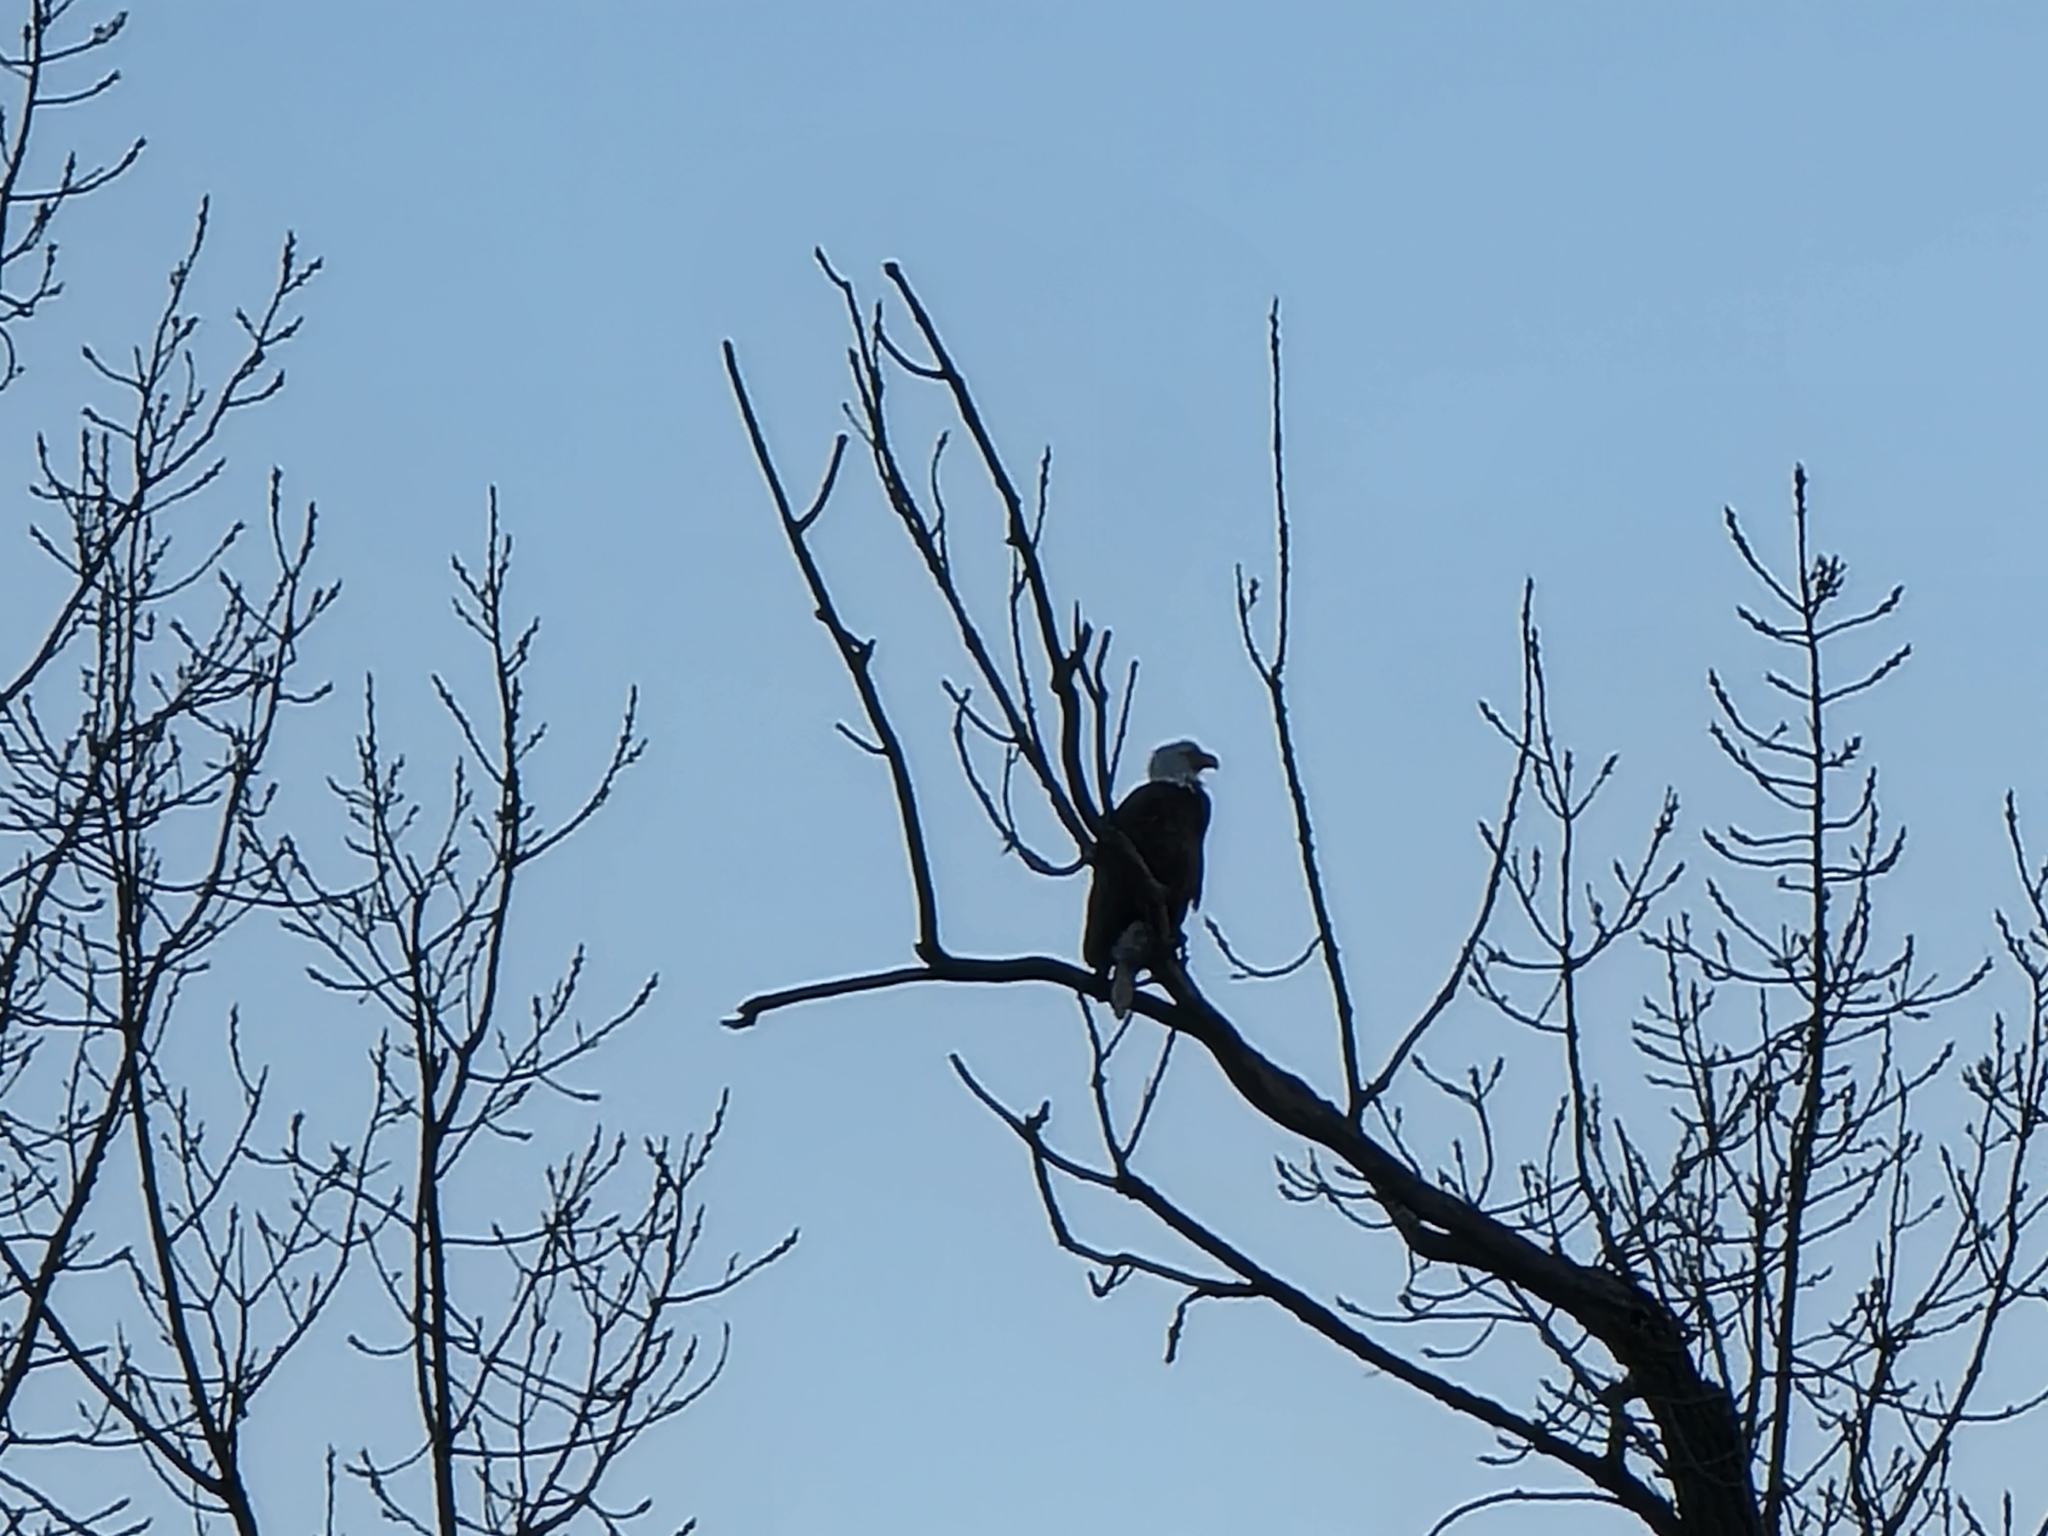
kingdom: Animalia
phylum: Chordata
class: Aves
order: Accipitriformes
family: Accipitridae
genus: Haliaeetus
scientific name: Haliaeetus leucocephalus
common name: Bald eagle
